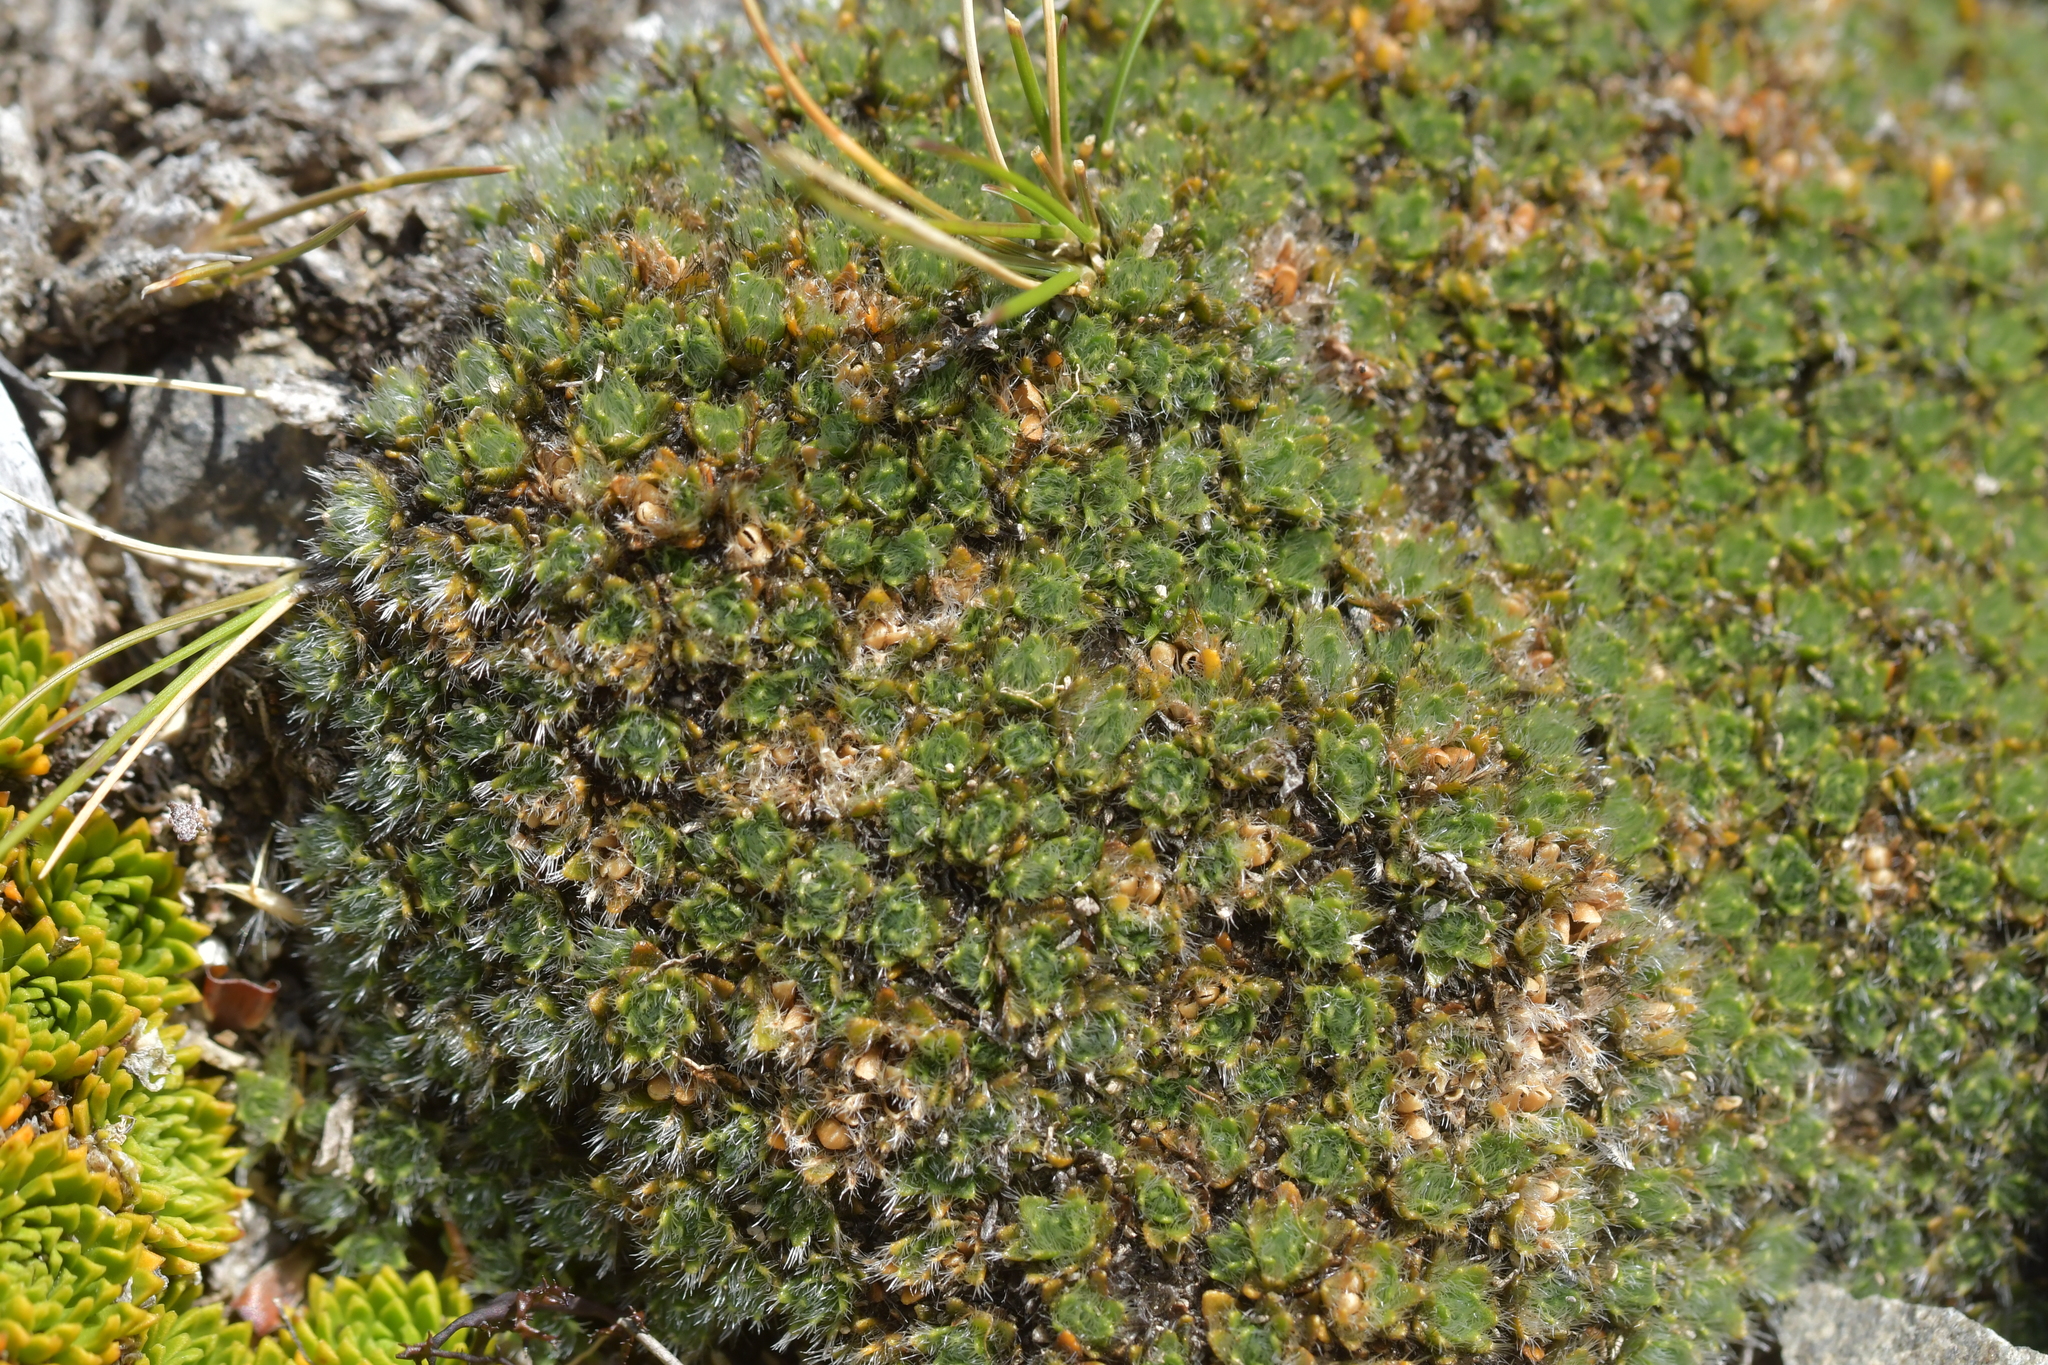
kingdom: Plantae
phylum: Tracheophyta
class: Magnoliopsida
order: Lamiales
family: Plantaginaceae
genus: Veronica
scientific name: Veronica pulvinaris
